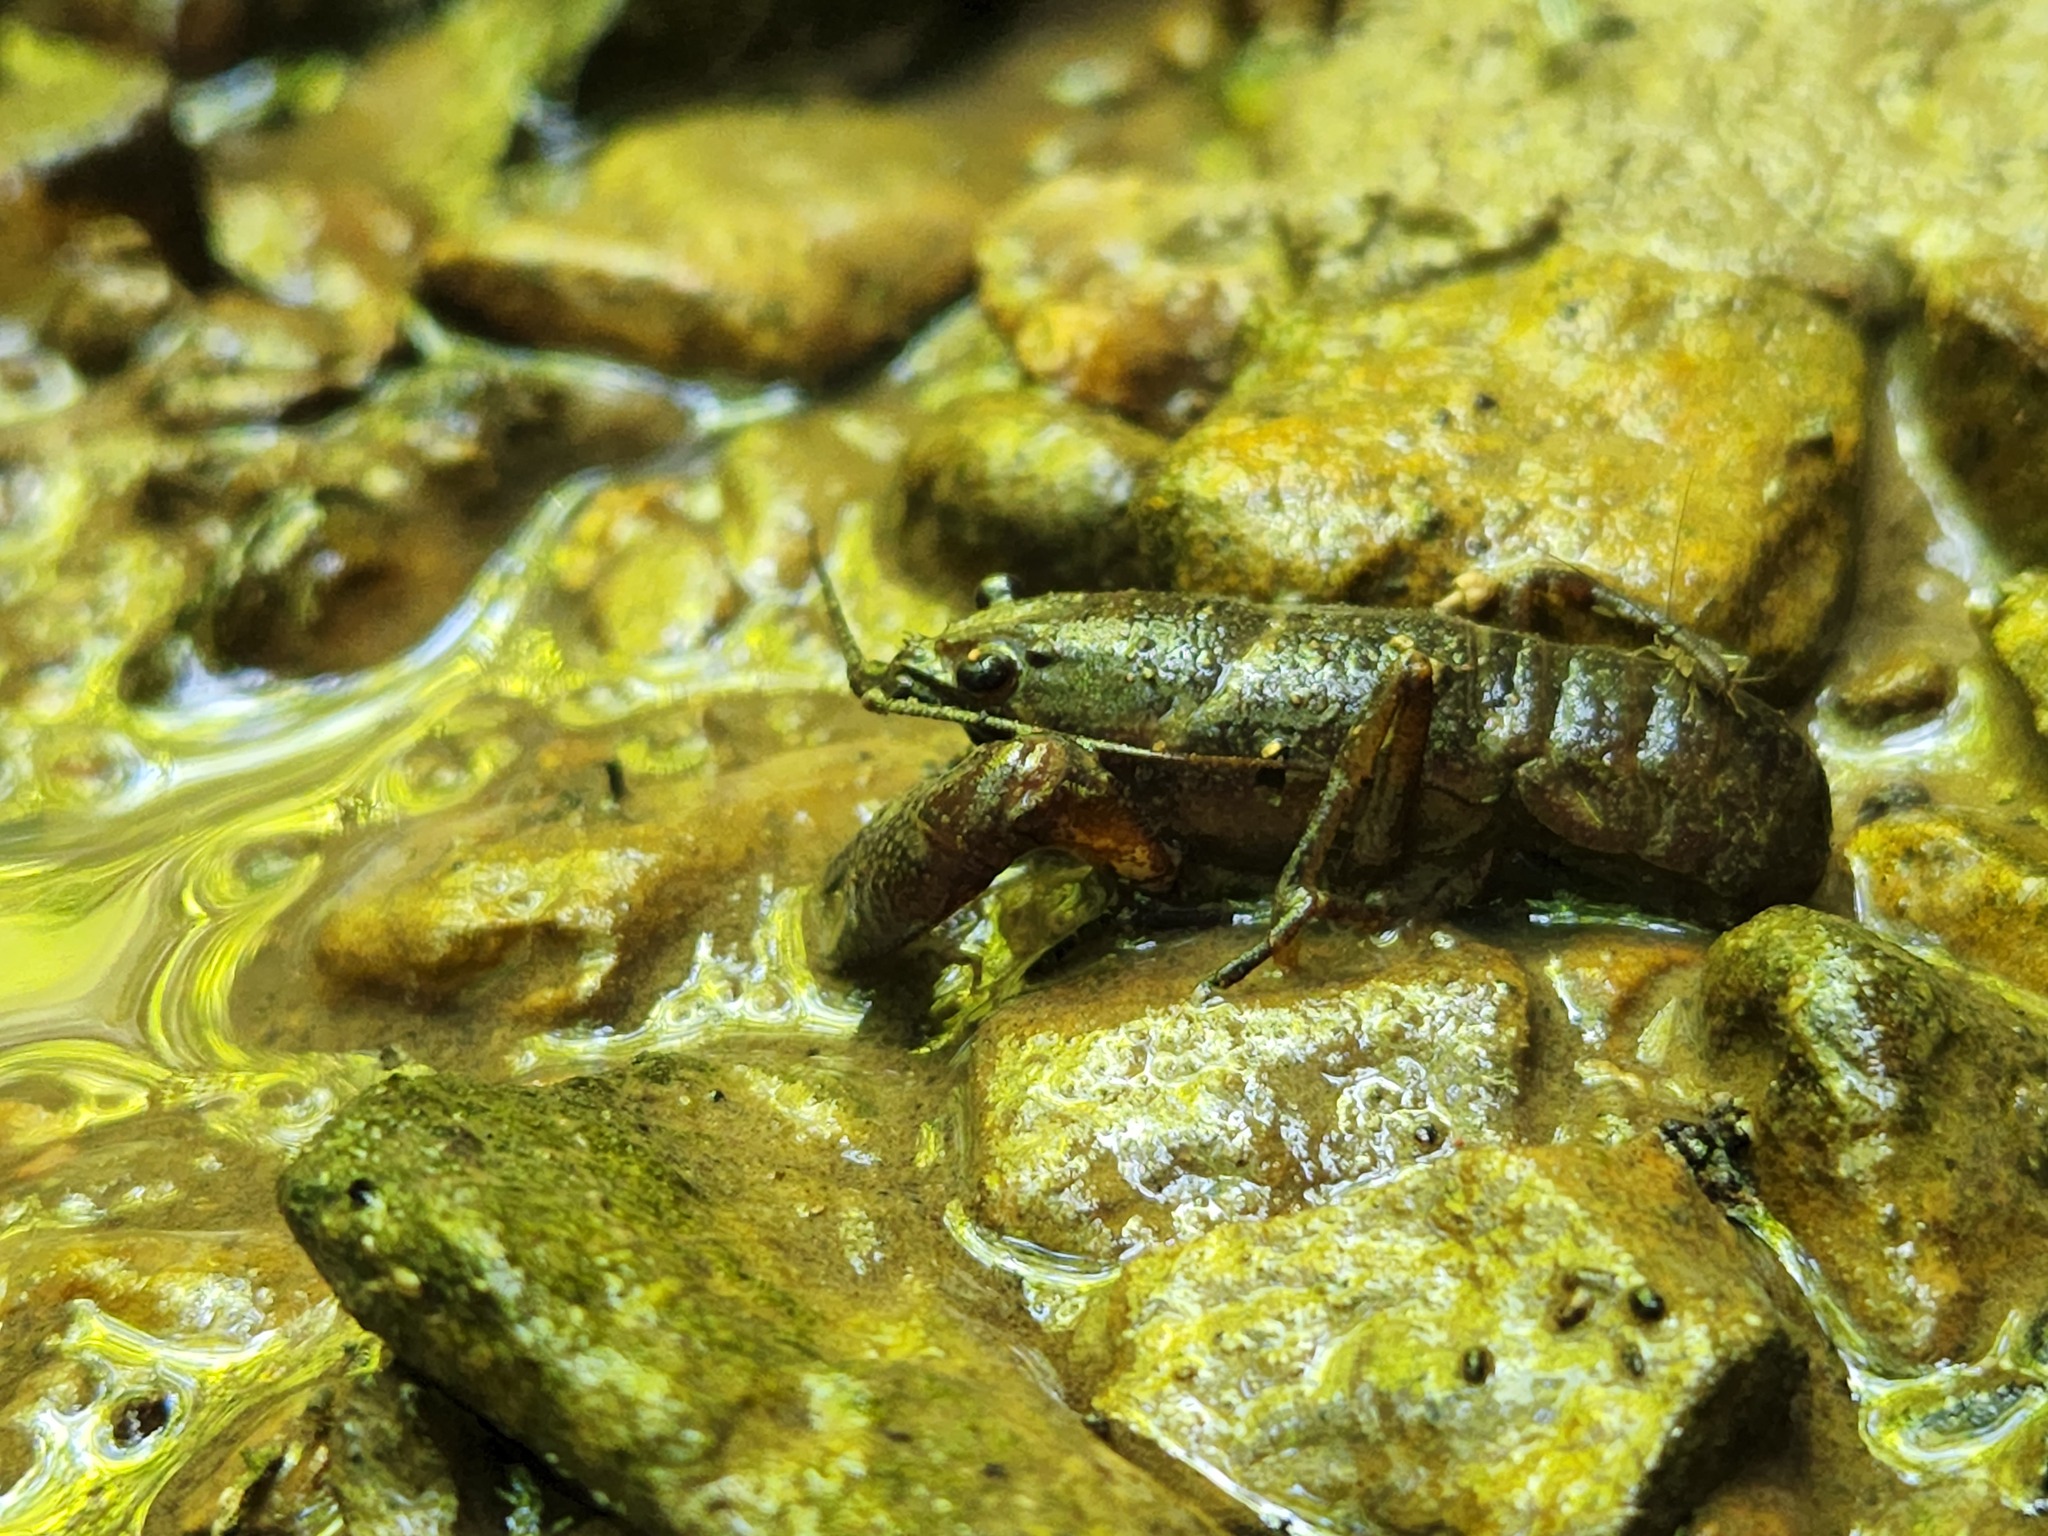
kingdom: Animalia
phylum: Arthropoda
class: Malacostraca
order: Decapoda
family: Cambaridae
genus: Faxonius
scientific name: Faxonius compressus
